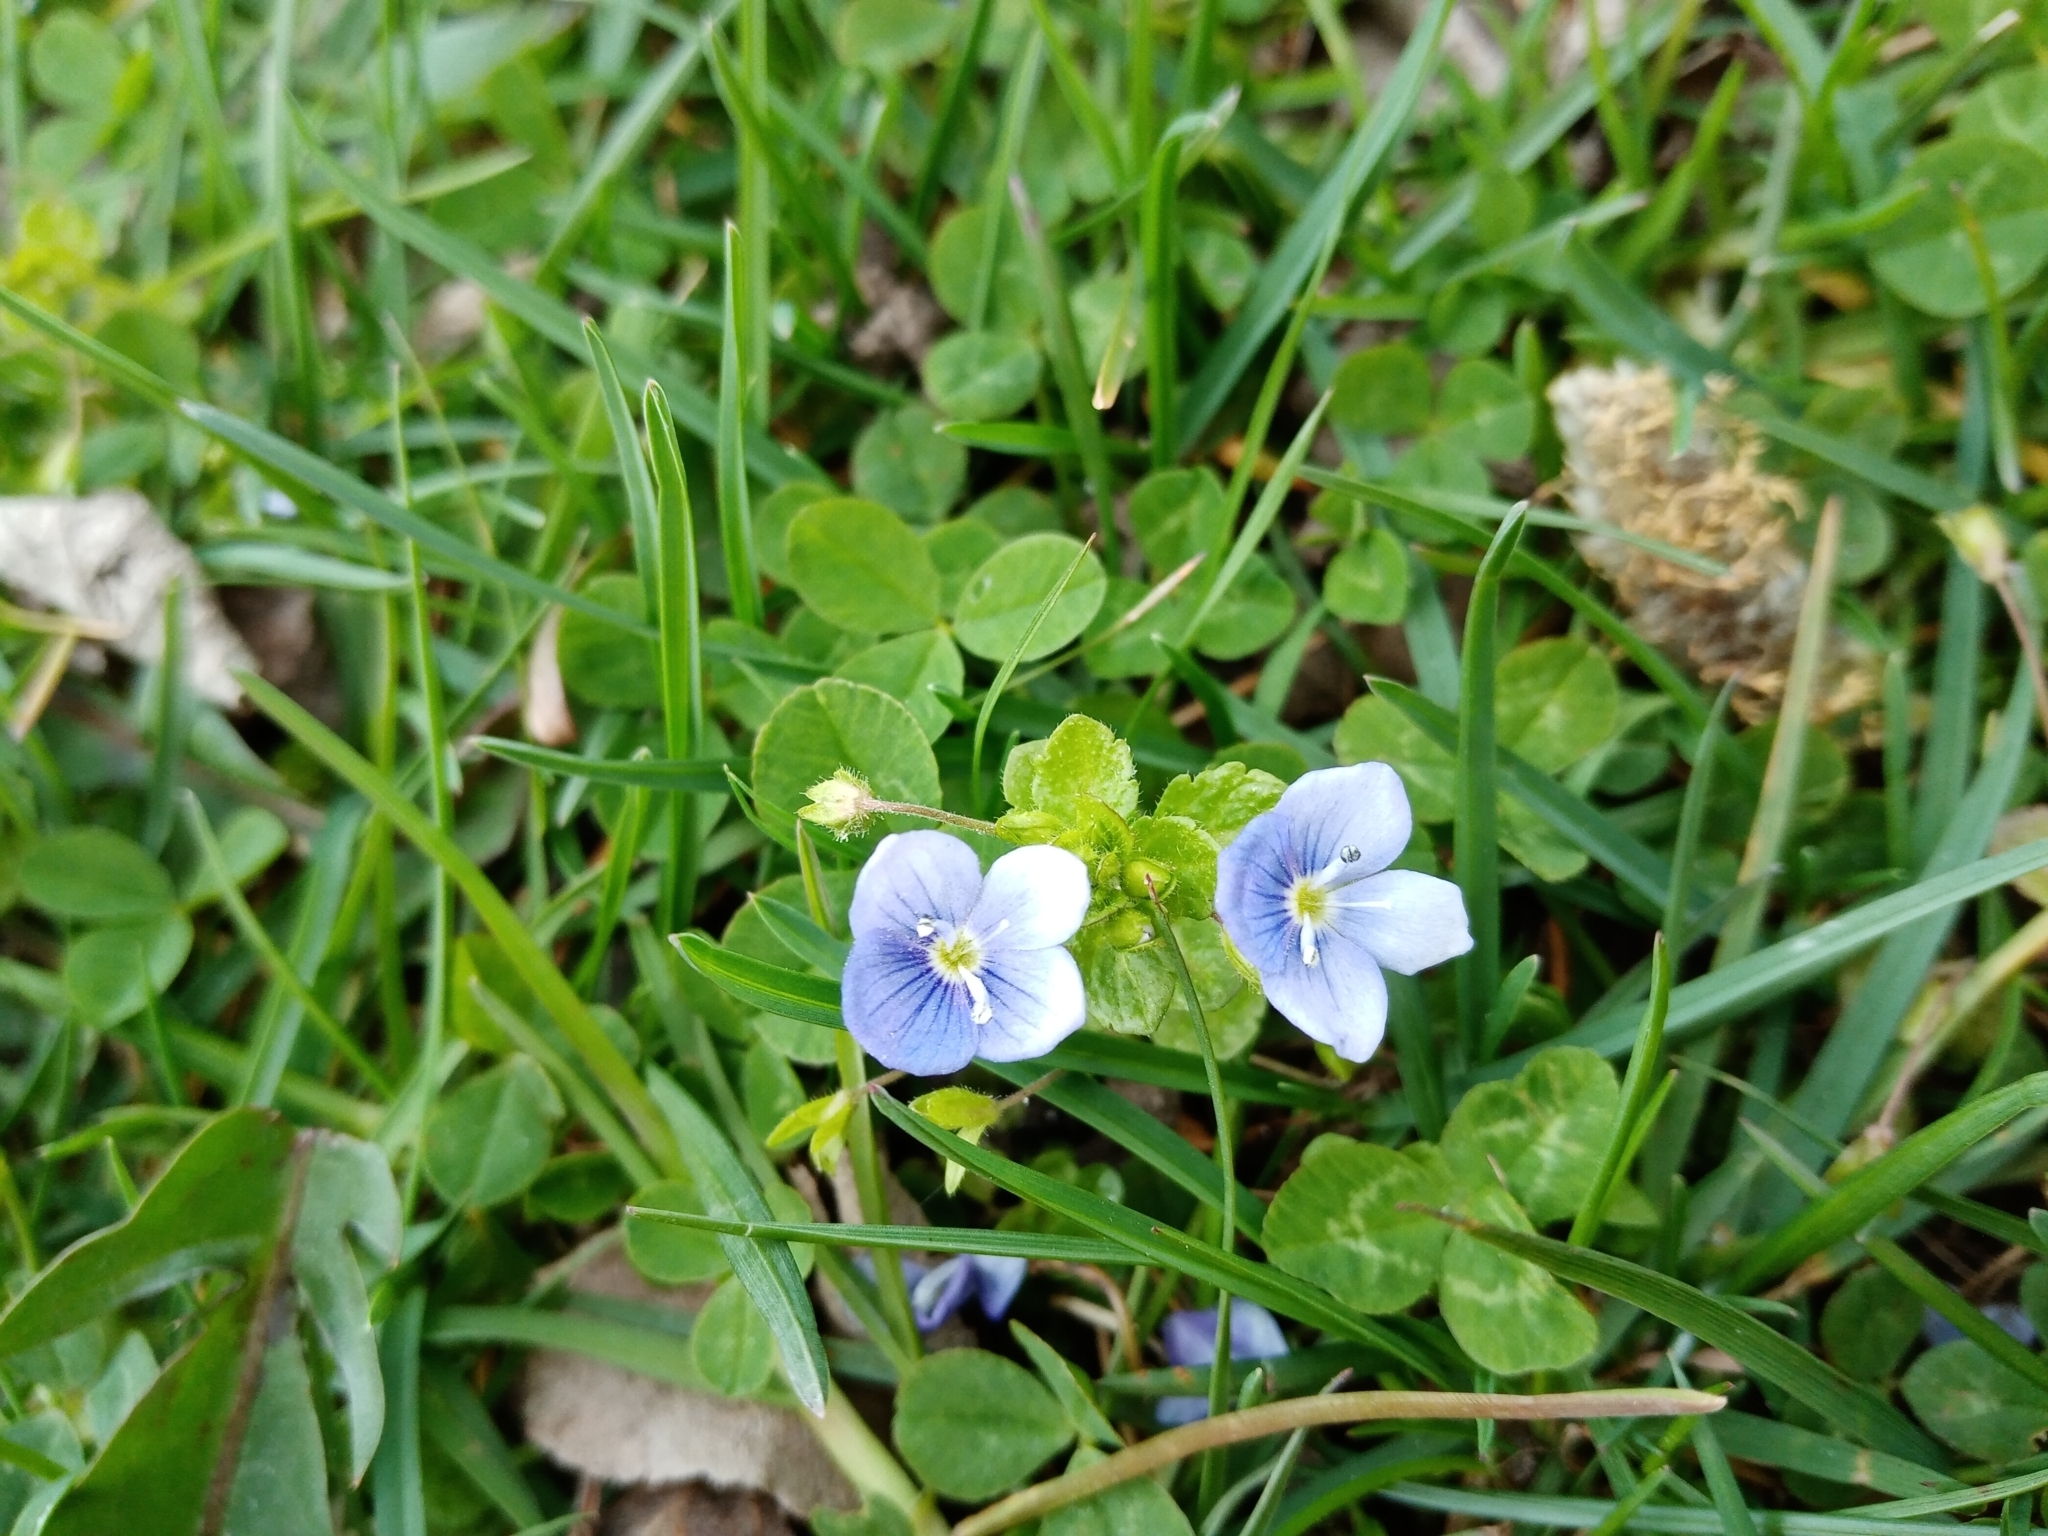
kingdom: Plantae
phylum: Tracheophyta
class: Magnoliopsida
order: Lamiales
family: Plantaginaceae
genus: Veronica
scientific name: Veronica filiformis
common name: Slender speedwell
